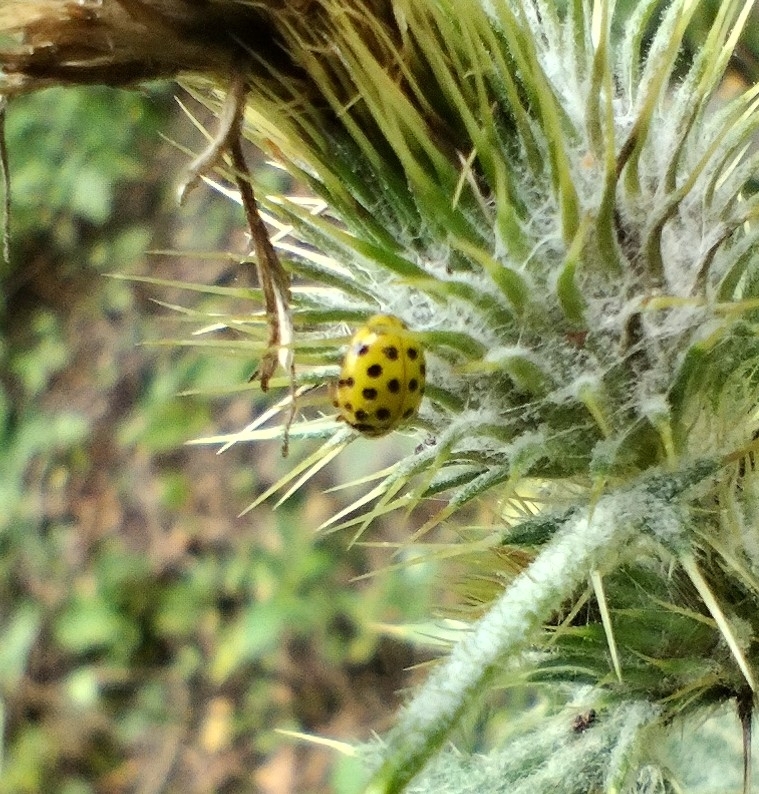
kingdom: Animalia
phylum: Arthropoda
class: Insecta
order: Coleoptera
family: Coccinellidae
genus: Psyllobora
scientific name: Psyllobora vigintiduopunctata
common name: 22-spot ladybird
